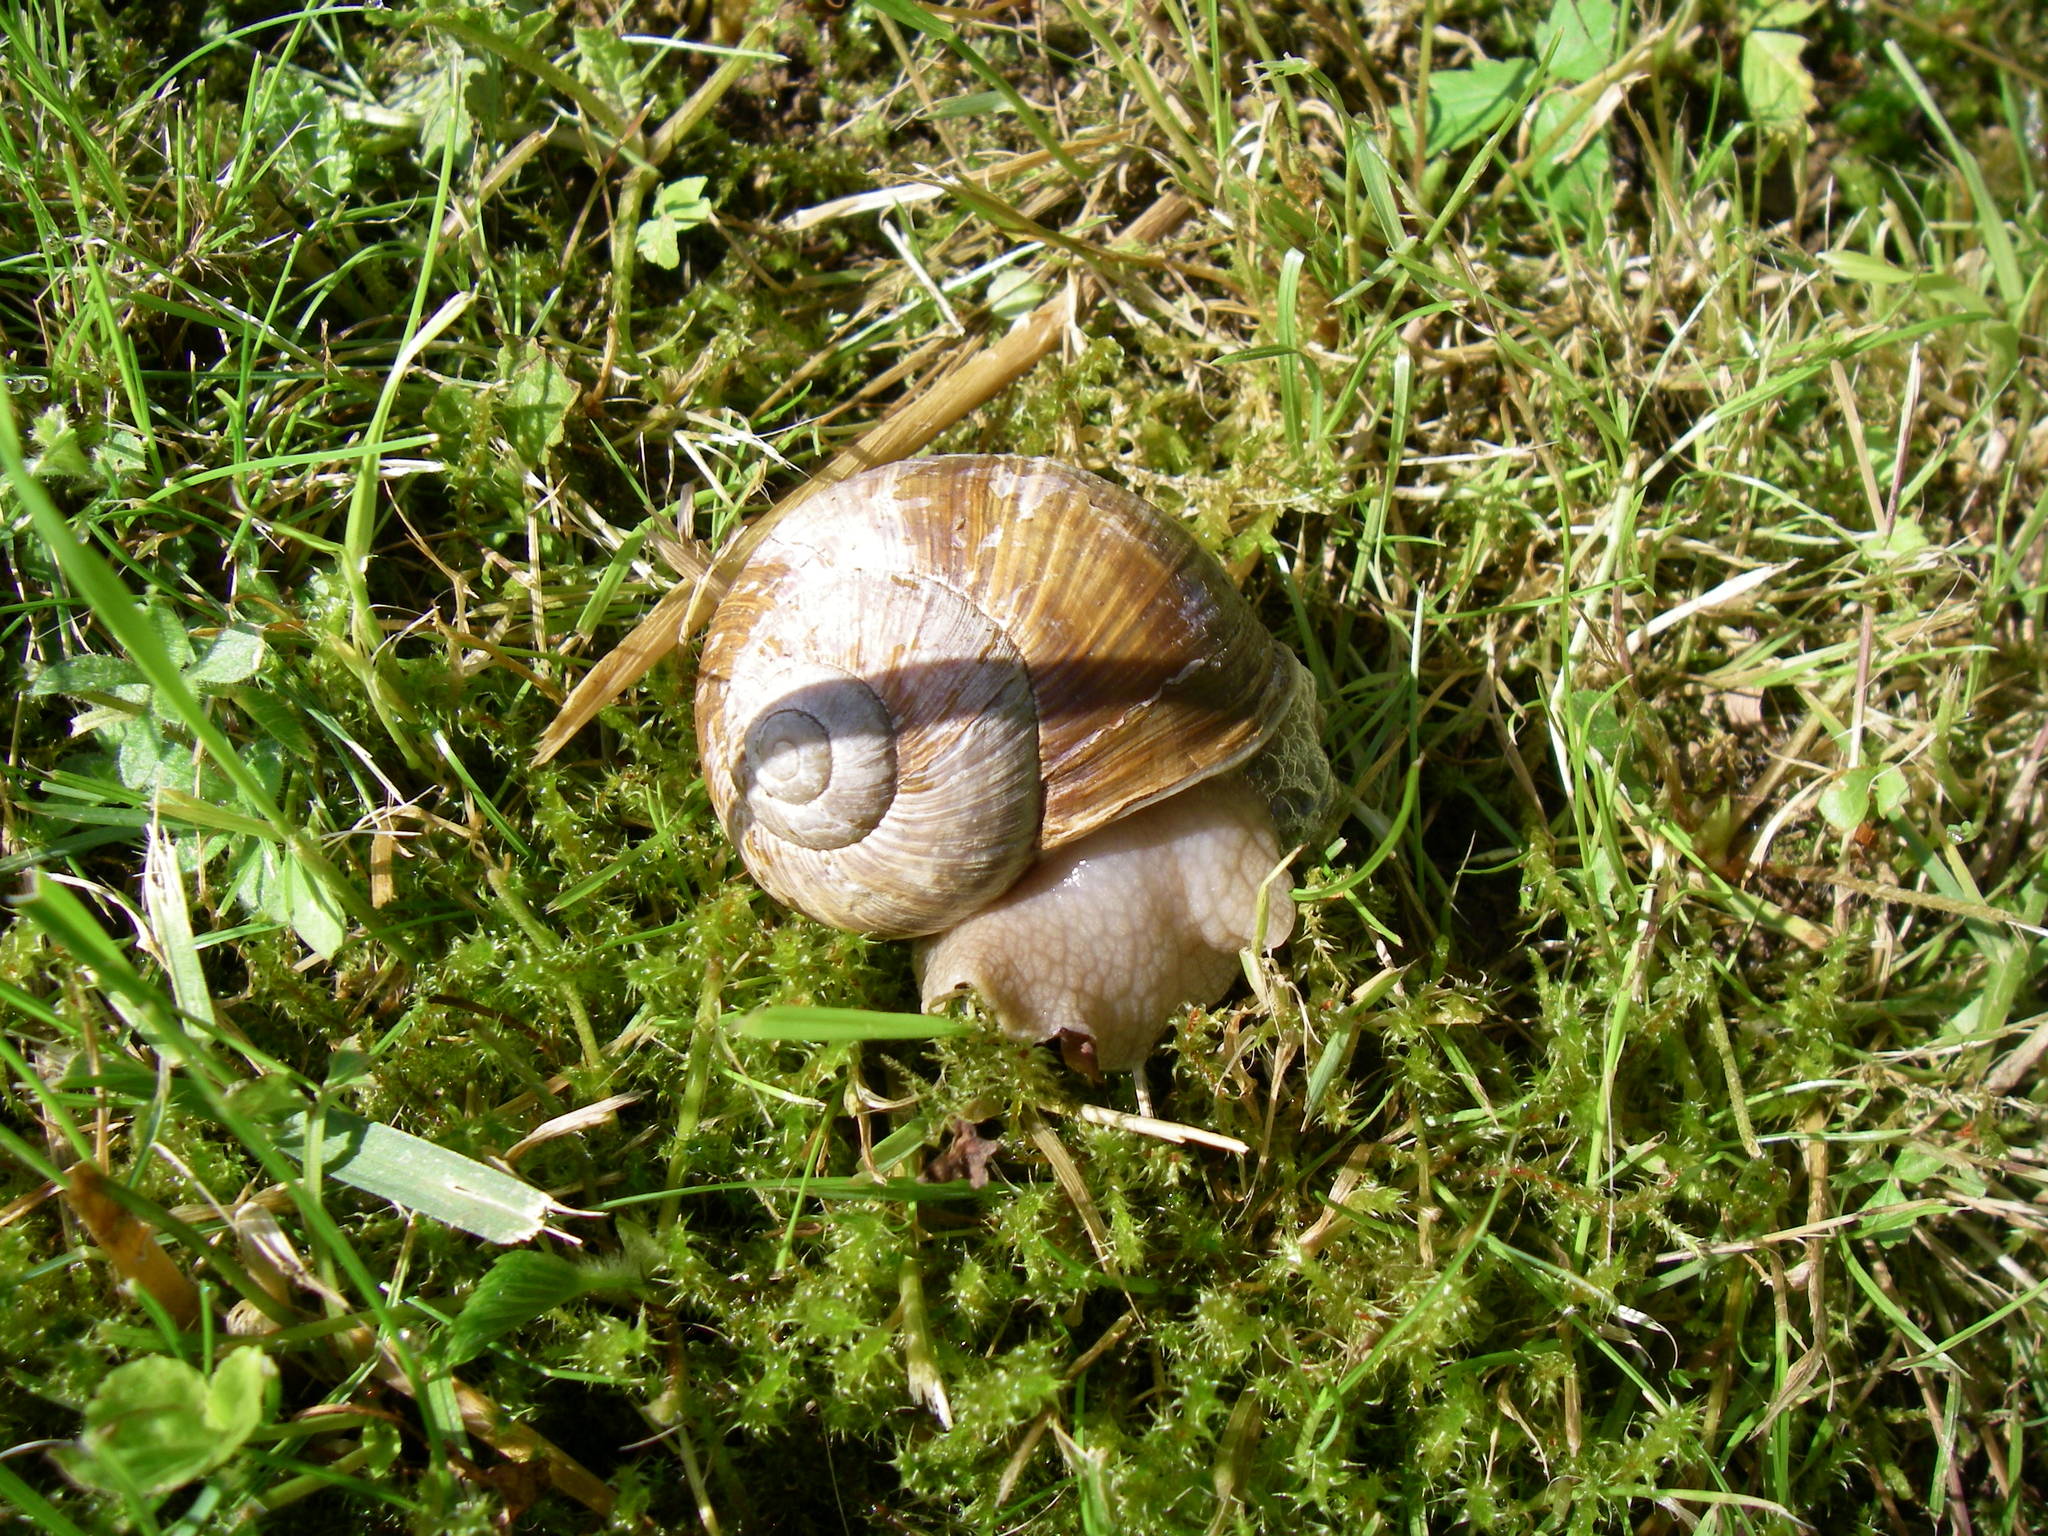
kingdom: Animalia
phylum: Mollusca
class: Gastropoda
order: Stylommatophora
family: Helicidae
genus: Helix
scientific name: Helix pomatia
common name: Roman snail
